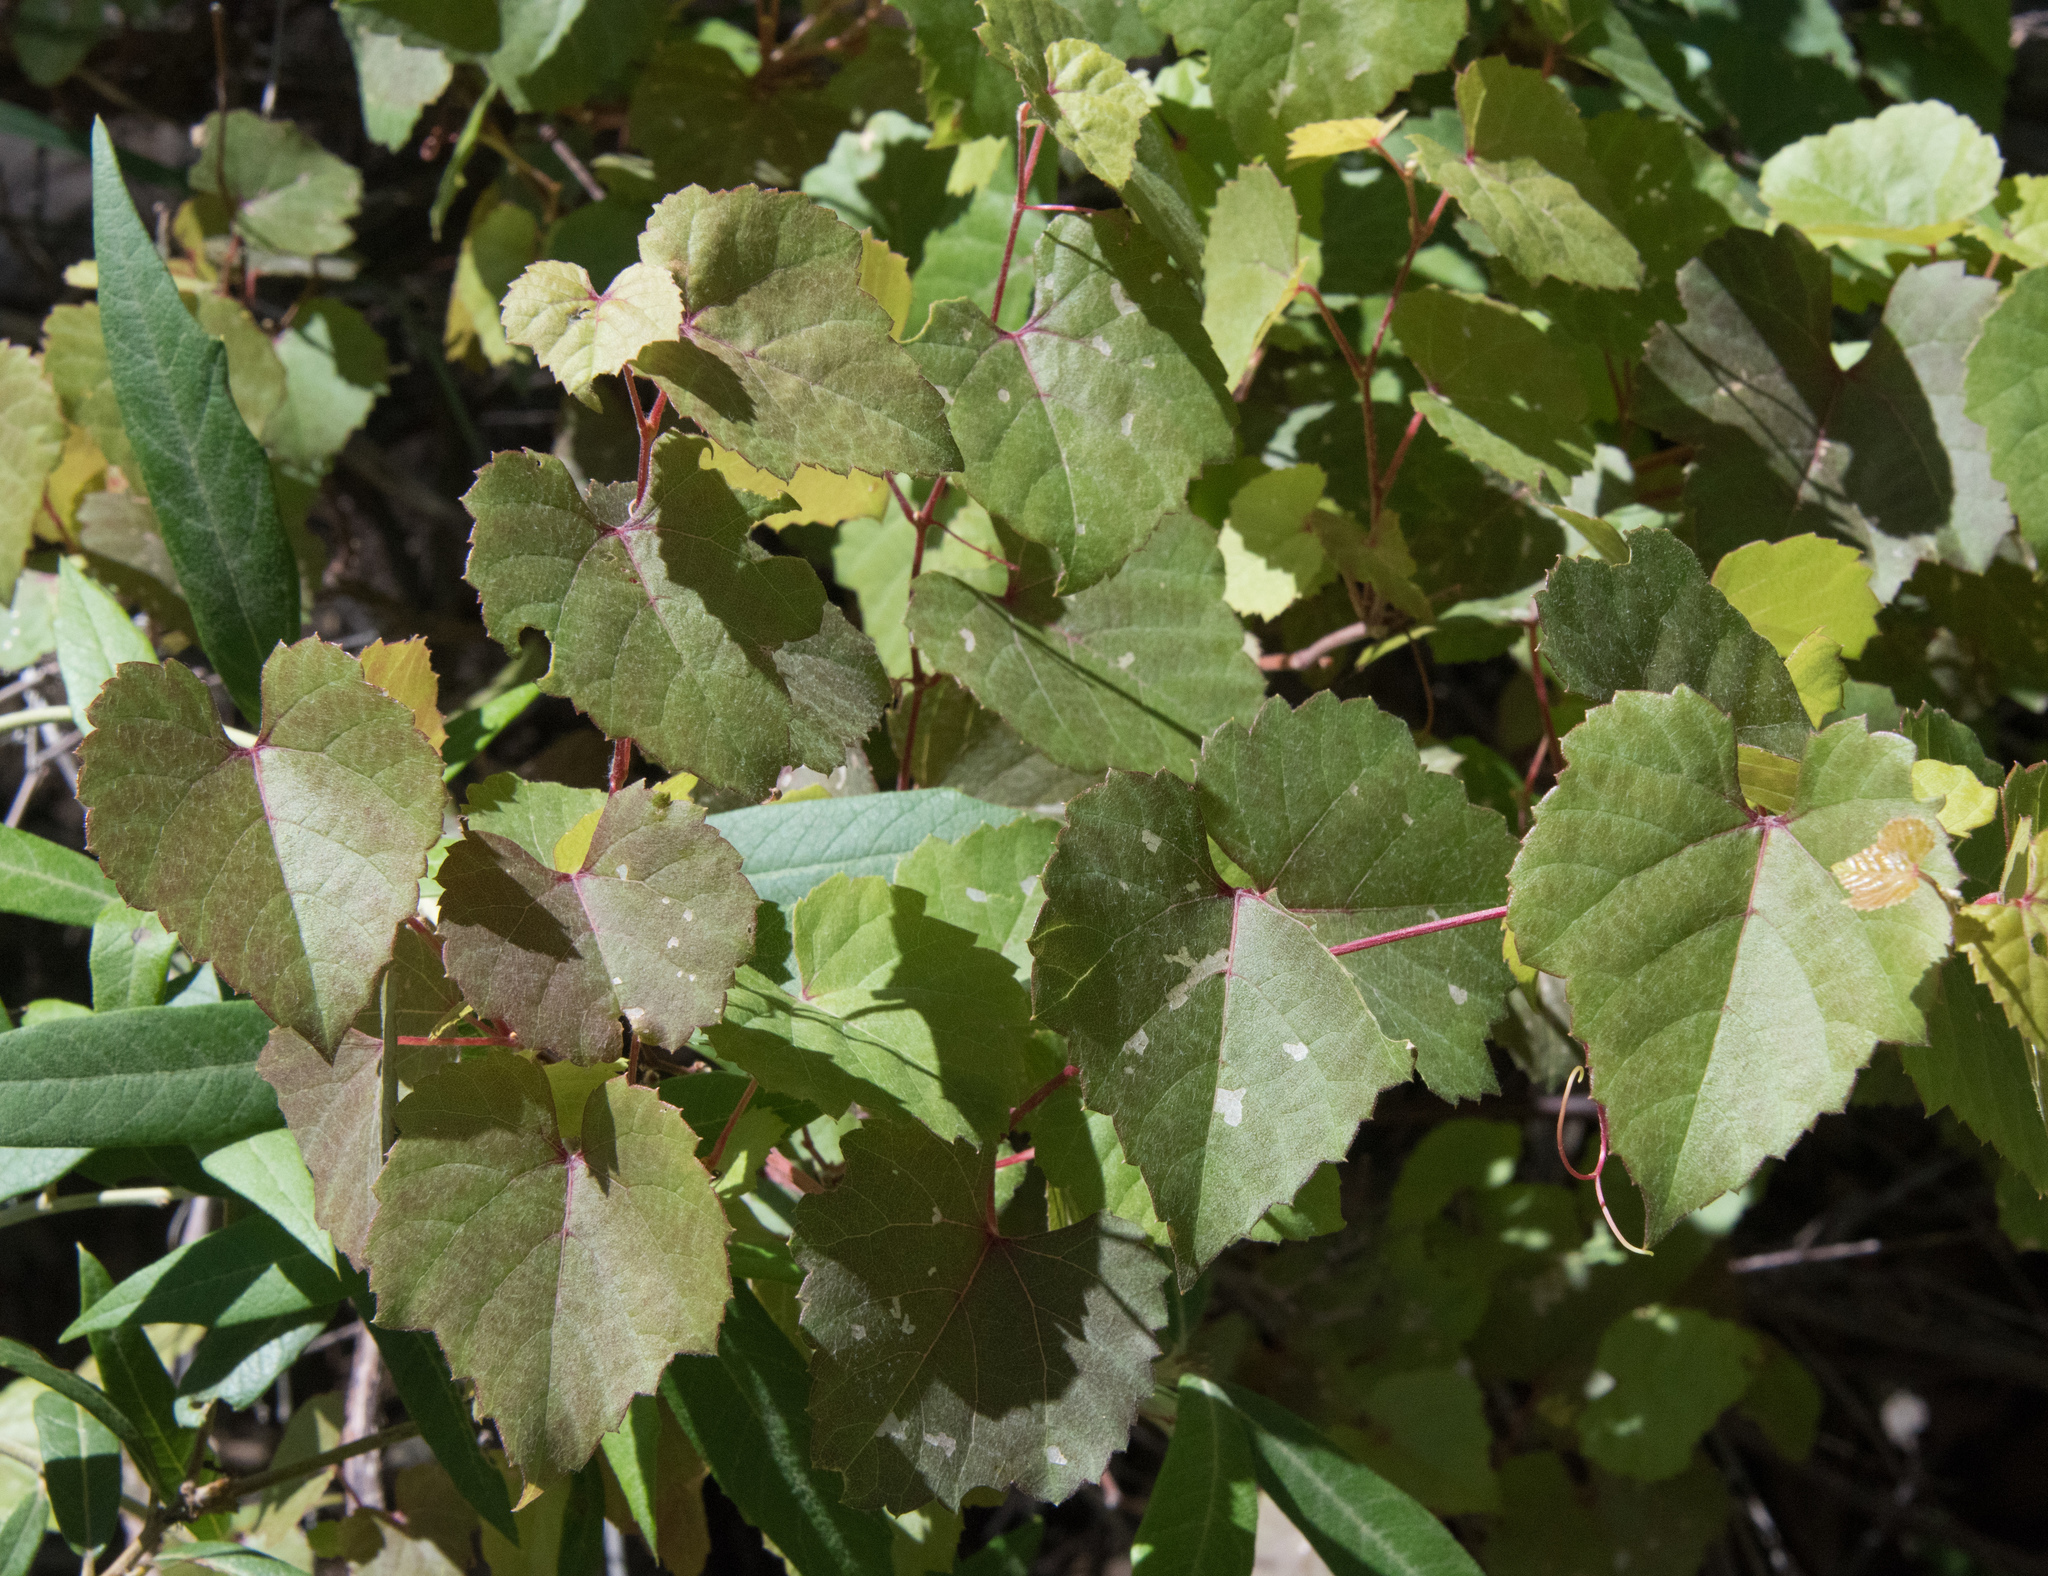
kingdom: Plantae
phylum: Tracheophyta
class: Magnoliopsida
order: Vitales
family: Vitaceae
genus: Vitis
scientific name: Vitis arizonica
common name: Canyon grape
